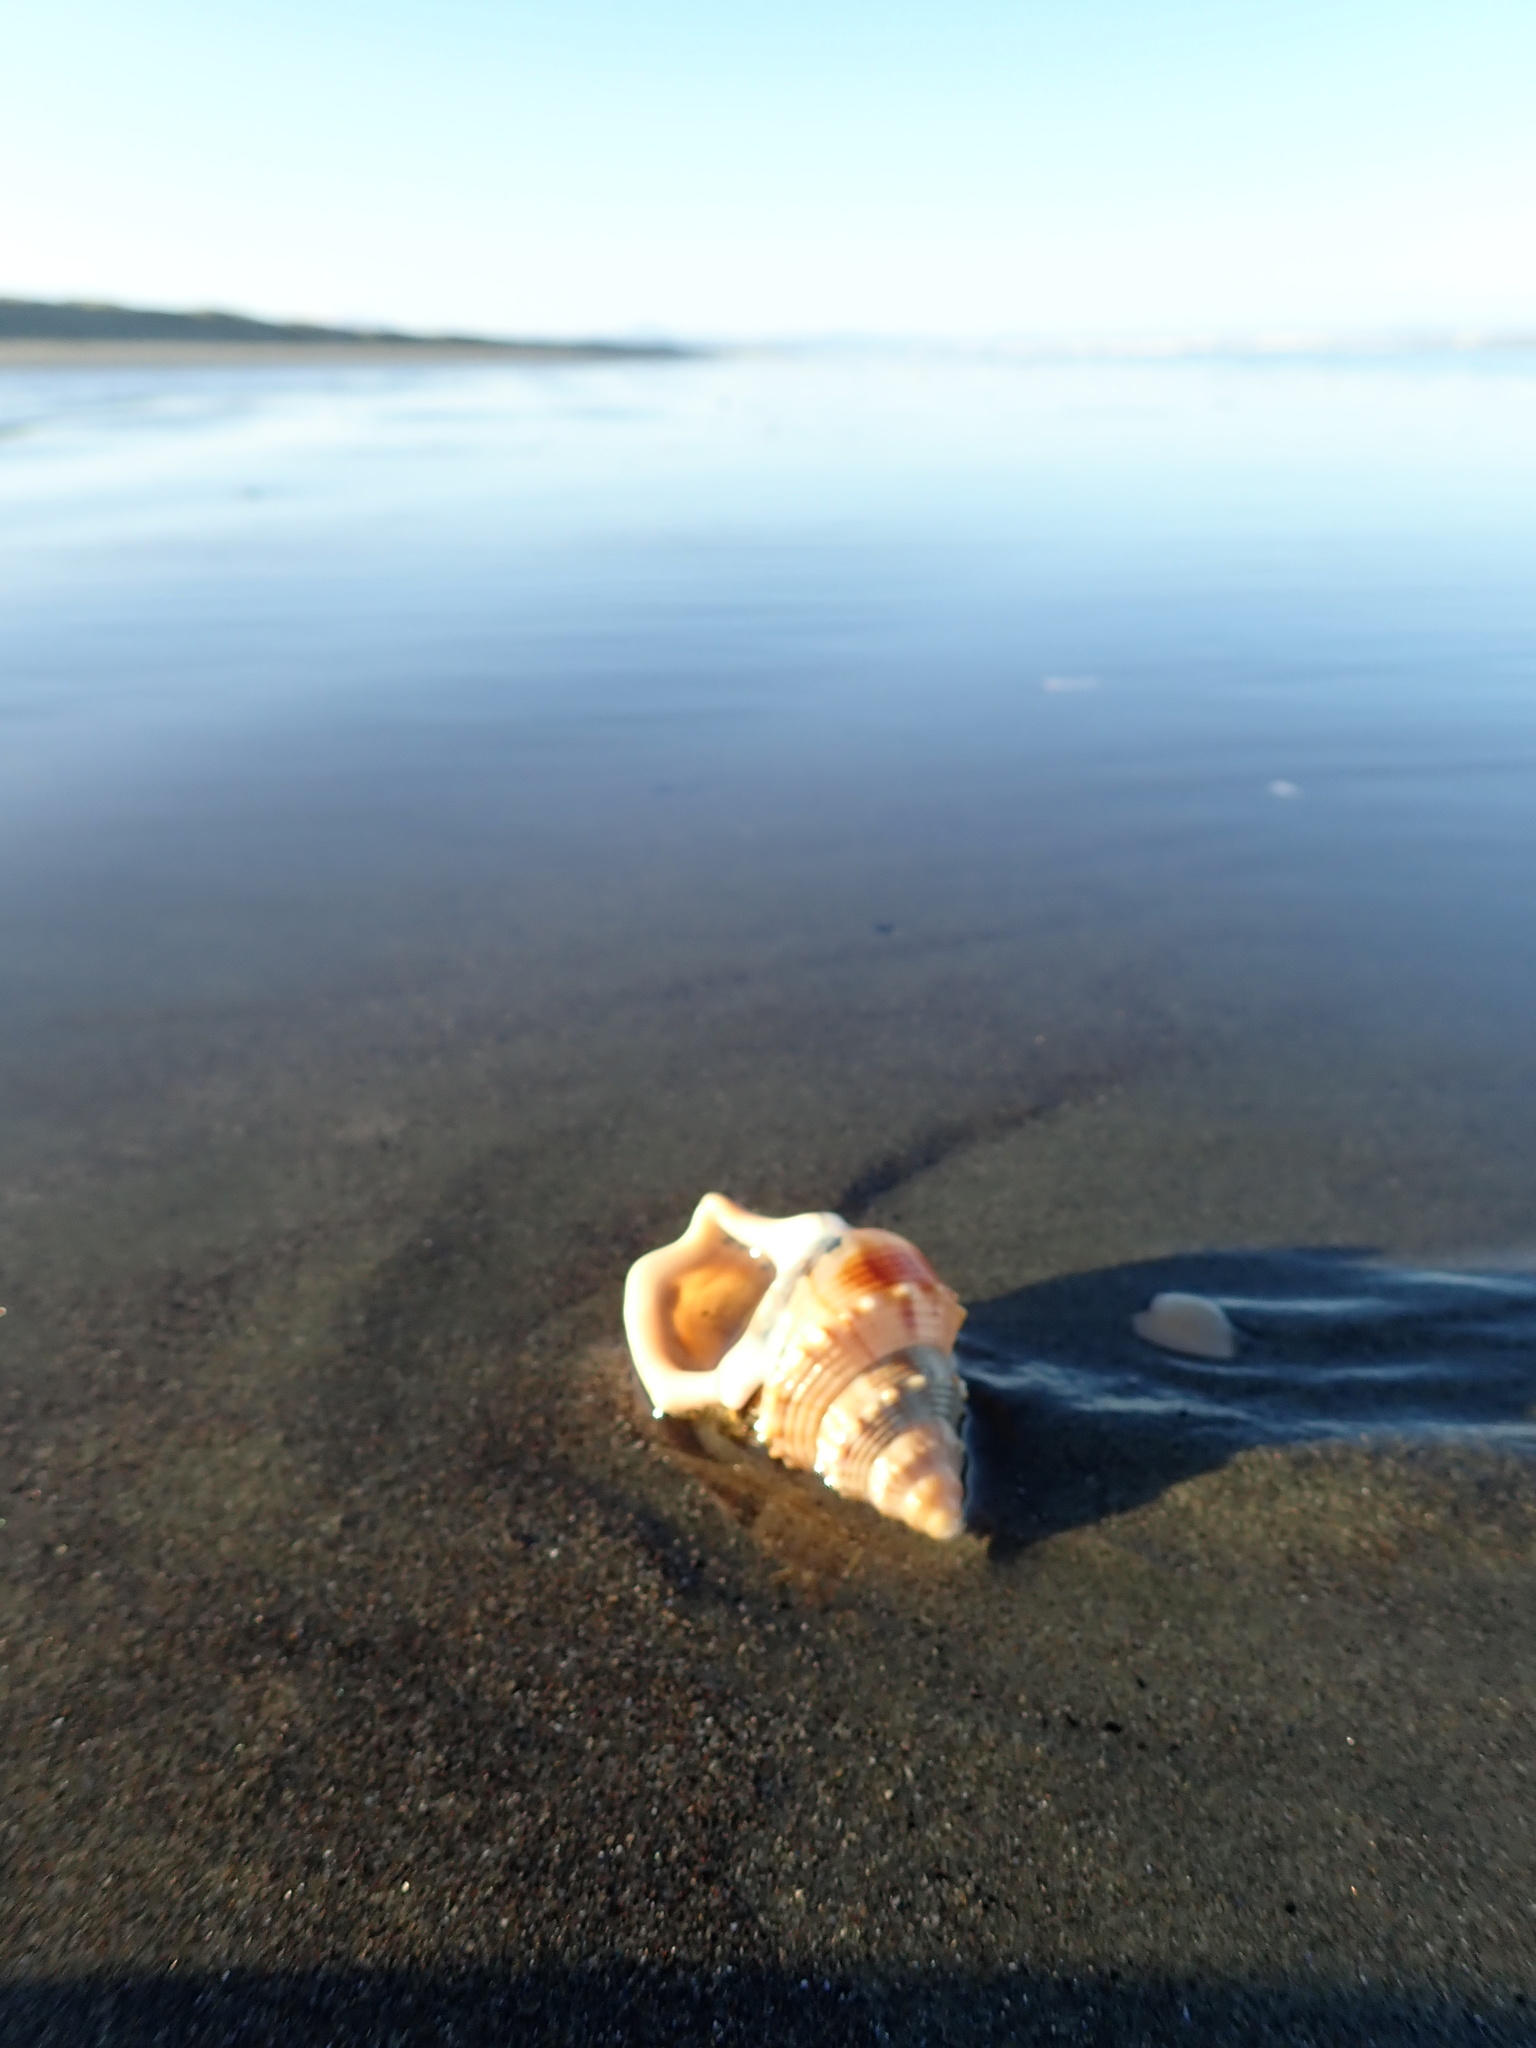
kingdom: Animalia
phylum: Mollusca
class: Gastropoda
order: Littorinimorpha
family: Struthiolariidae
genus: Struthiolaria
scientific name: Struthiolaria papulosa
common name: Large ostrich foot
